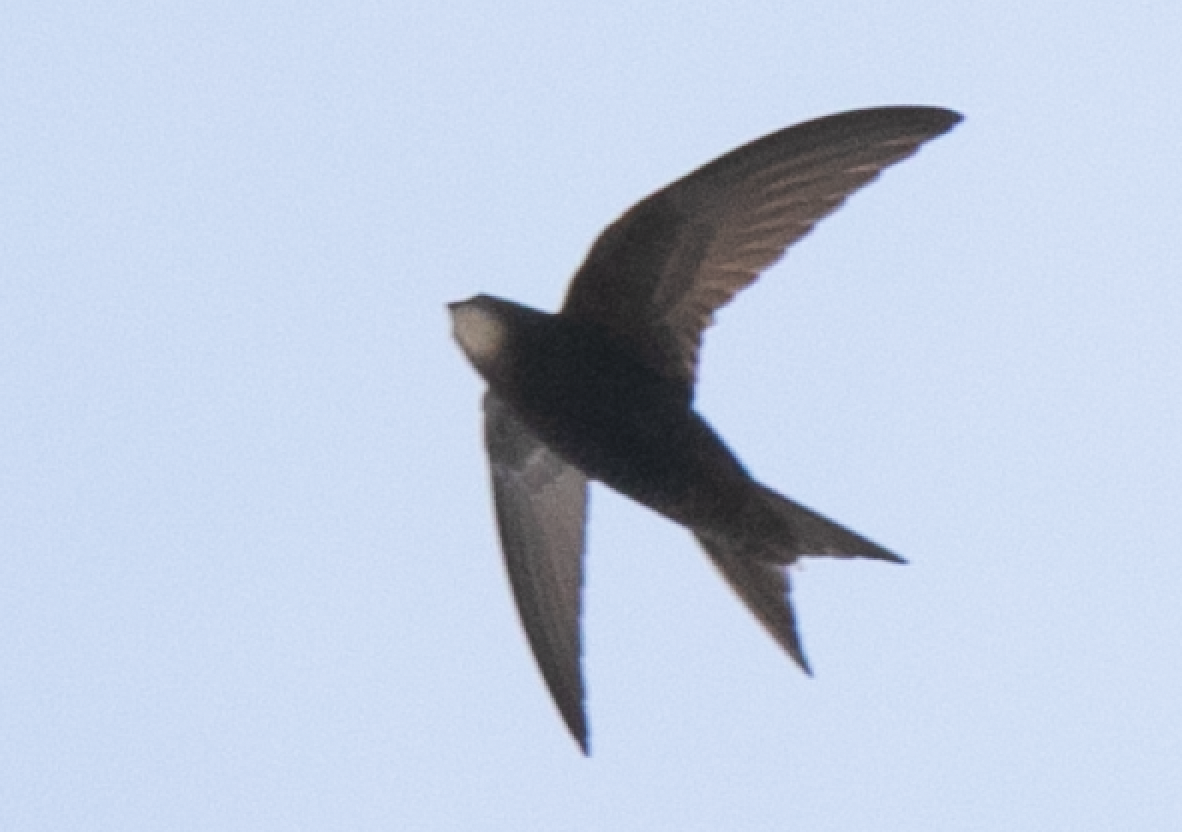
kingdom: Animalia
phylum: Chordata
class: Aves
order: Apodiformes
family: Apodidae
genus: Apus
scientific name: Apus apus
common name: Common swift
